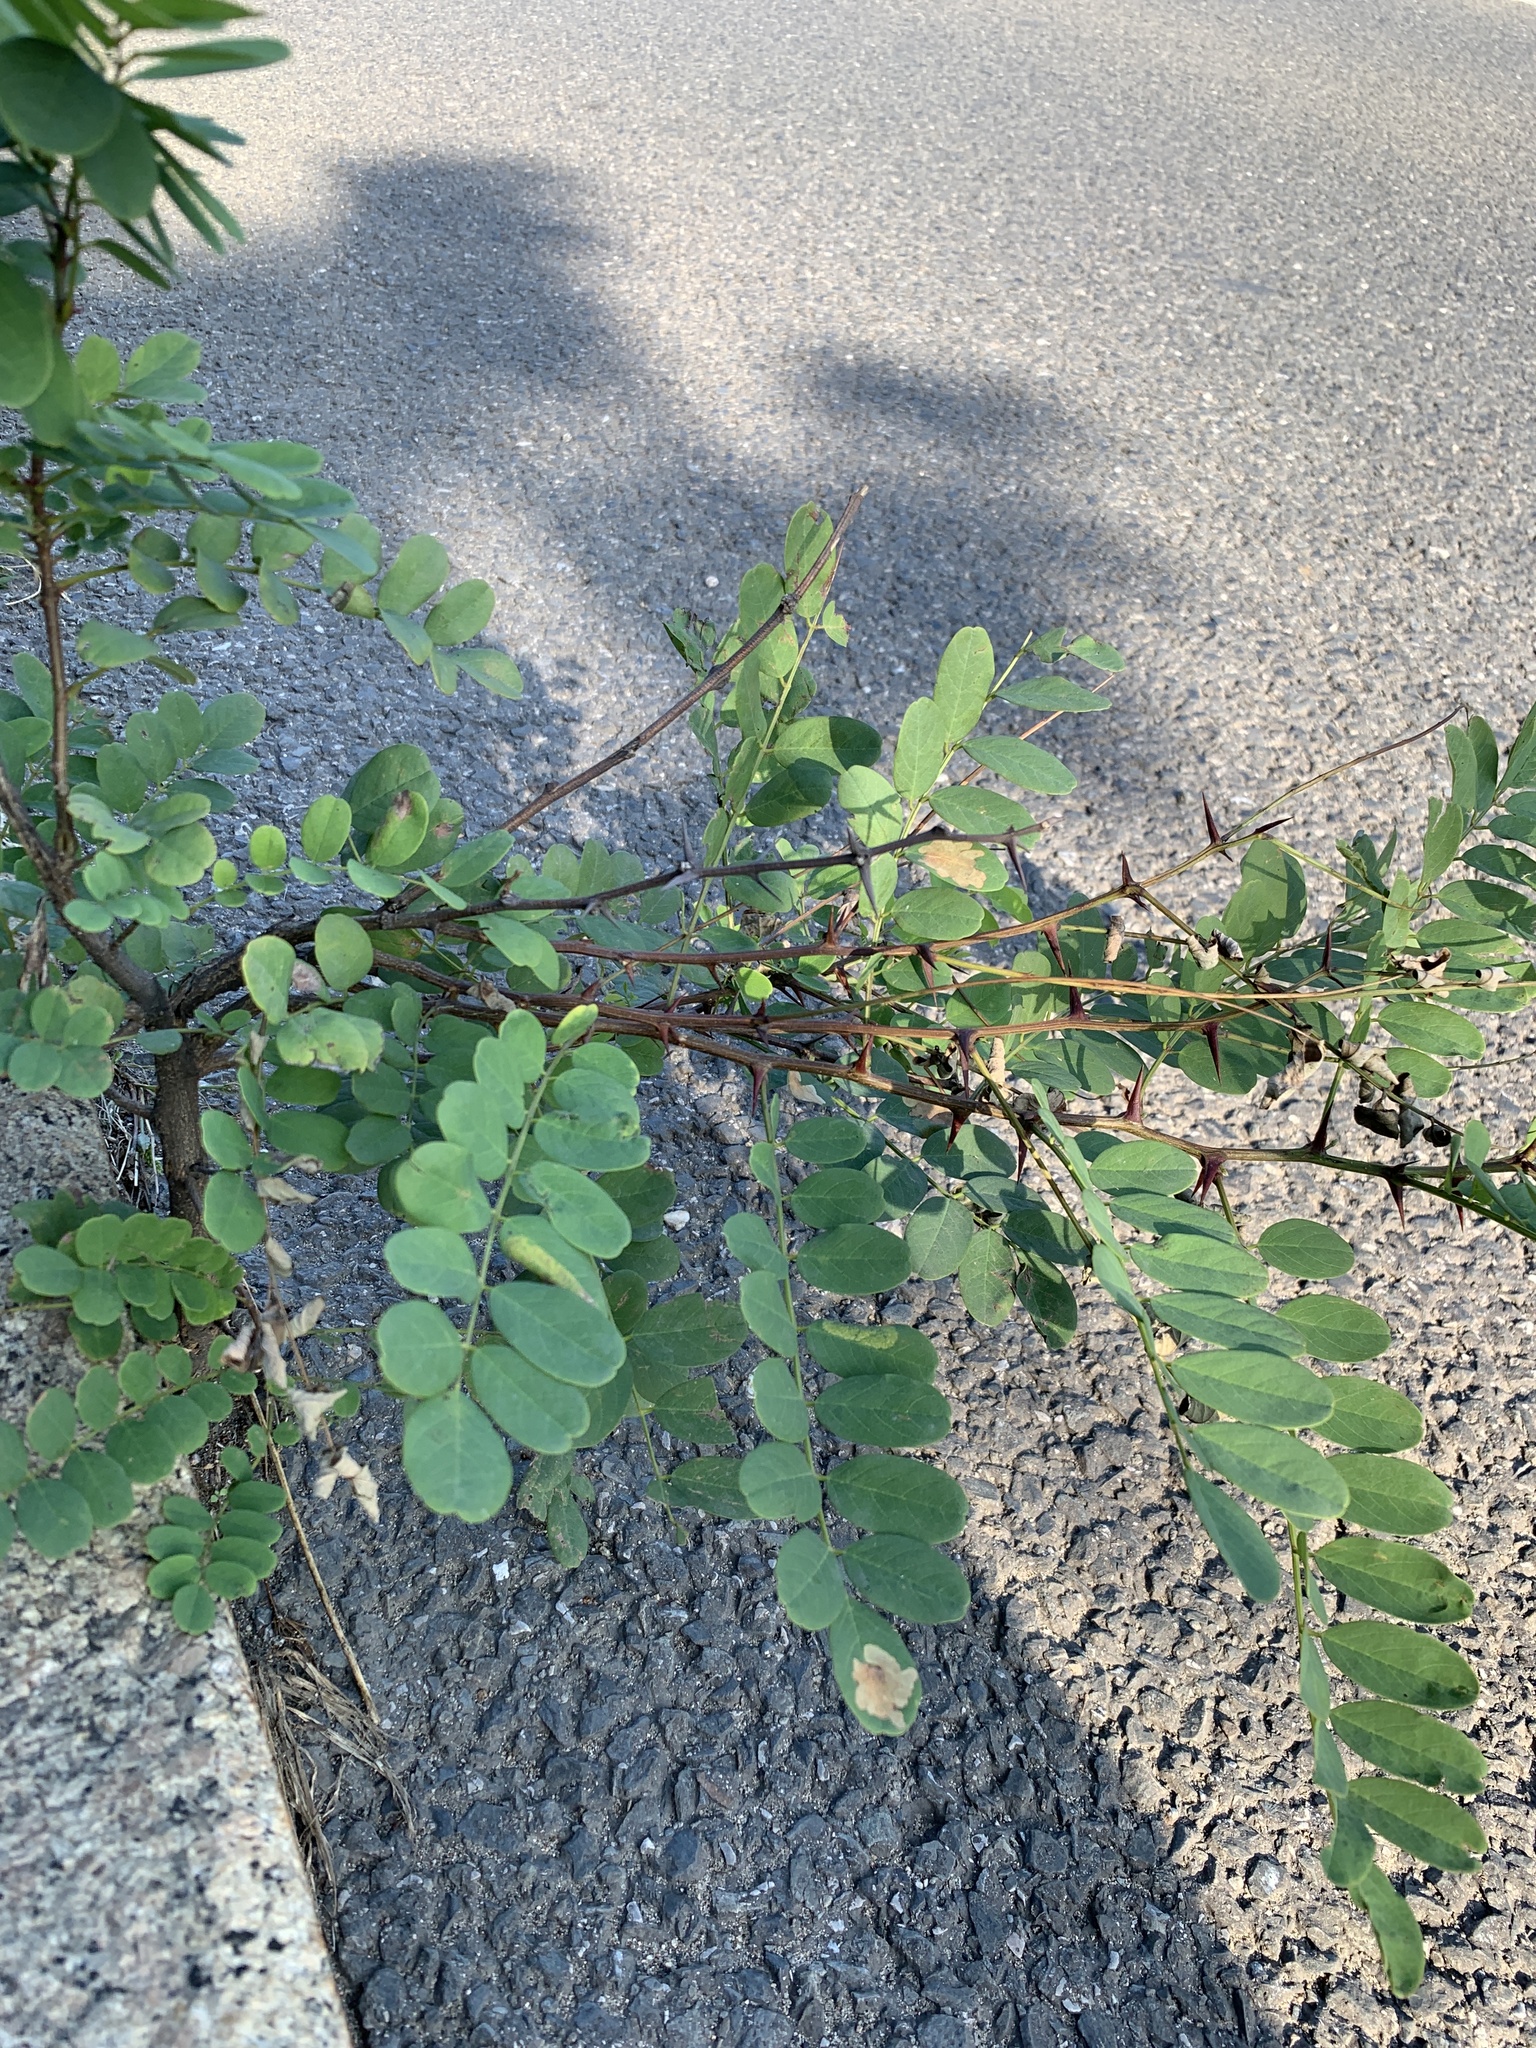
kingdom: Plantae
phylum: Tracheophyta
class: Magnoliopsida
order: Fabales
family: Fabaceae
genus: Robinia
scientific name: Robinia pseudoacacia
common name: Black locust
